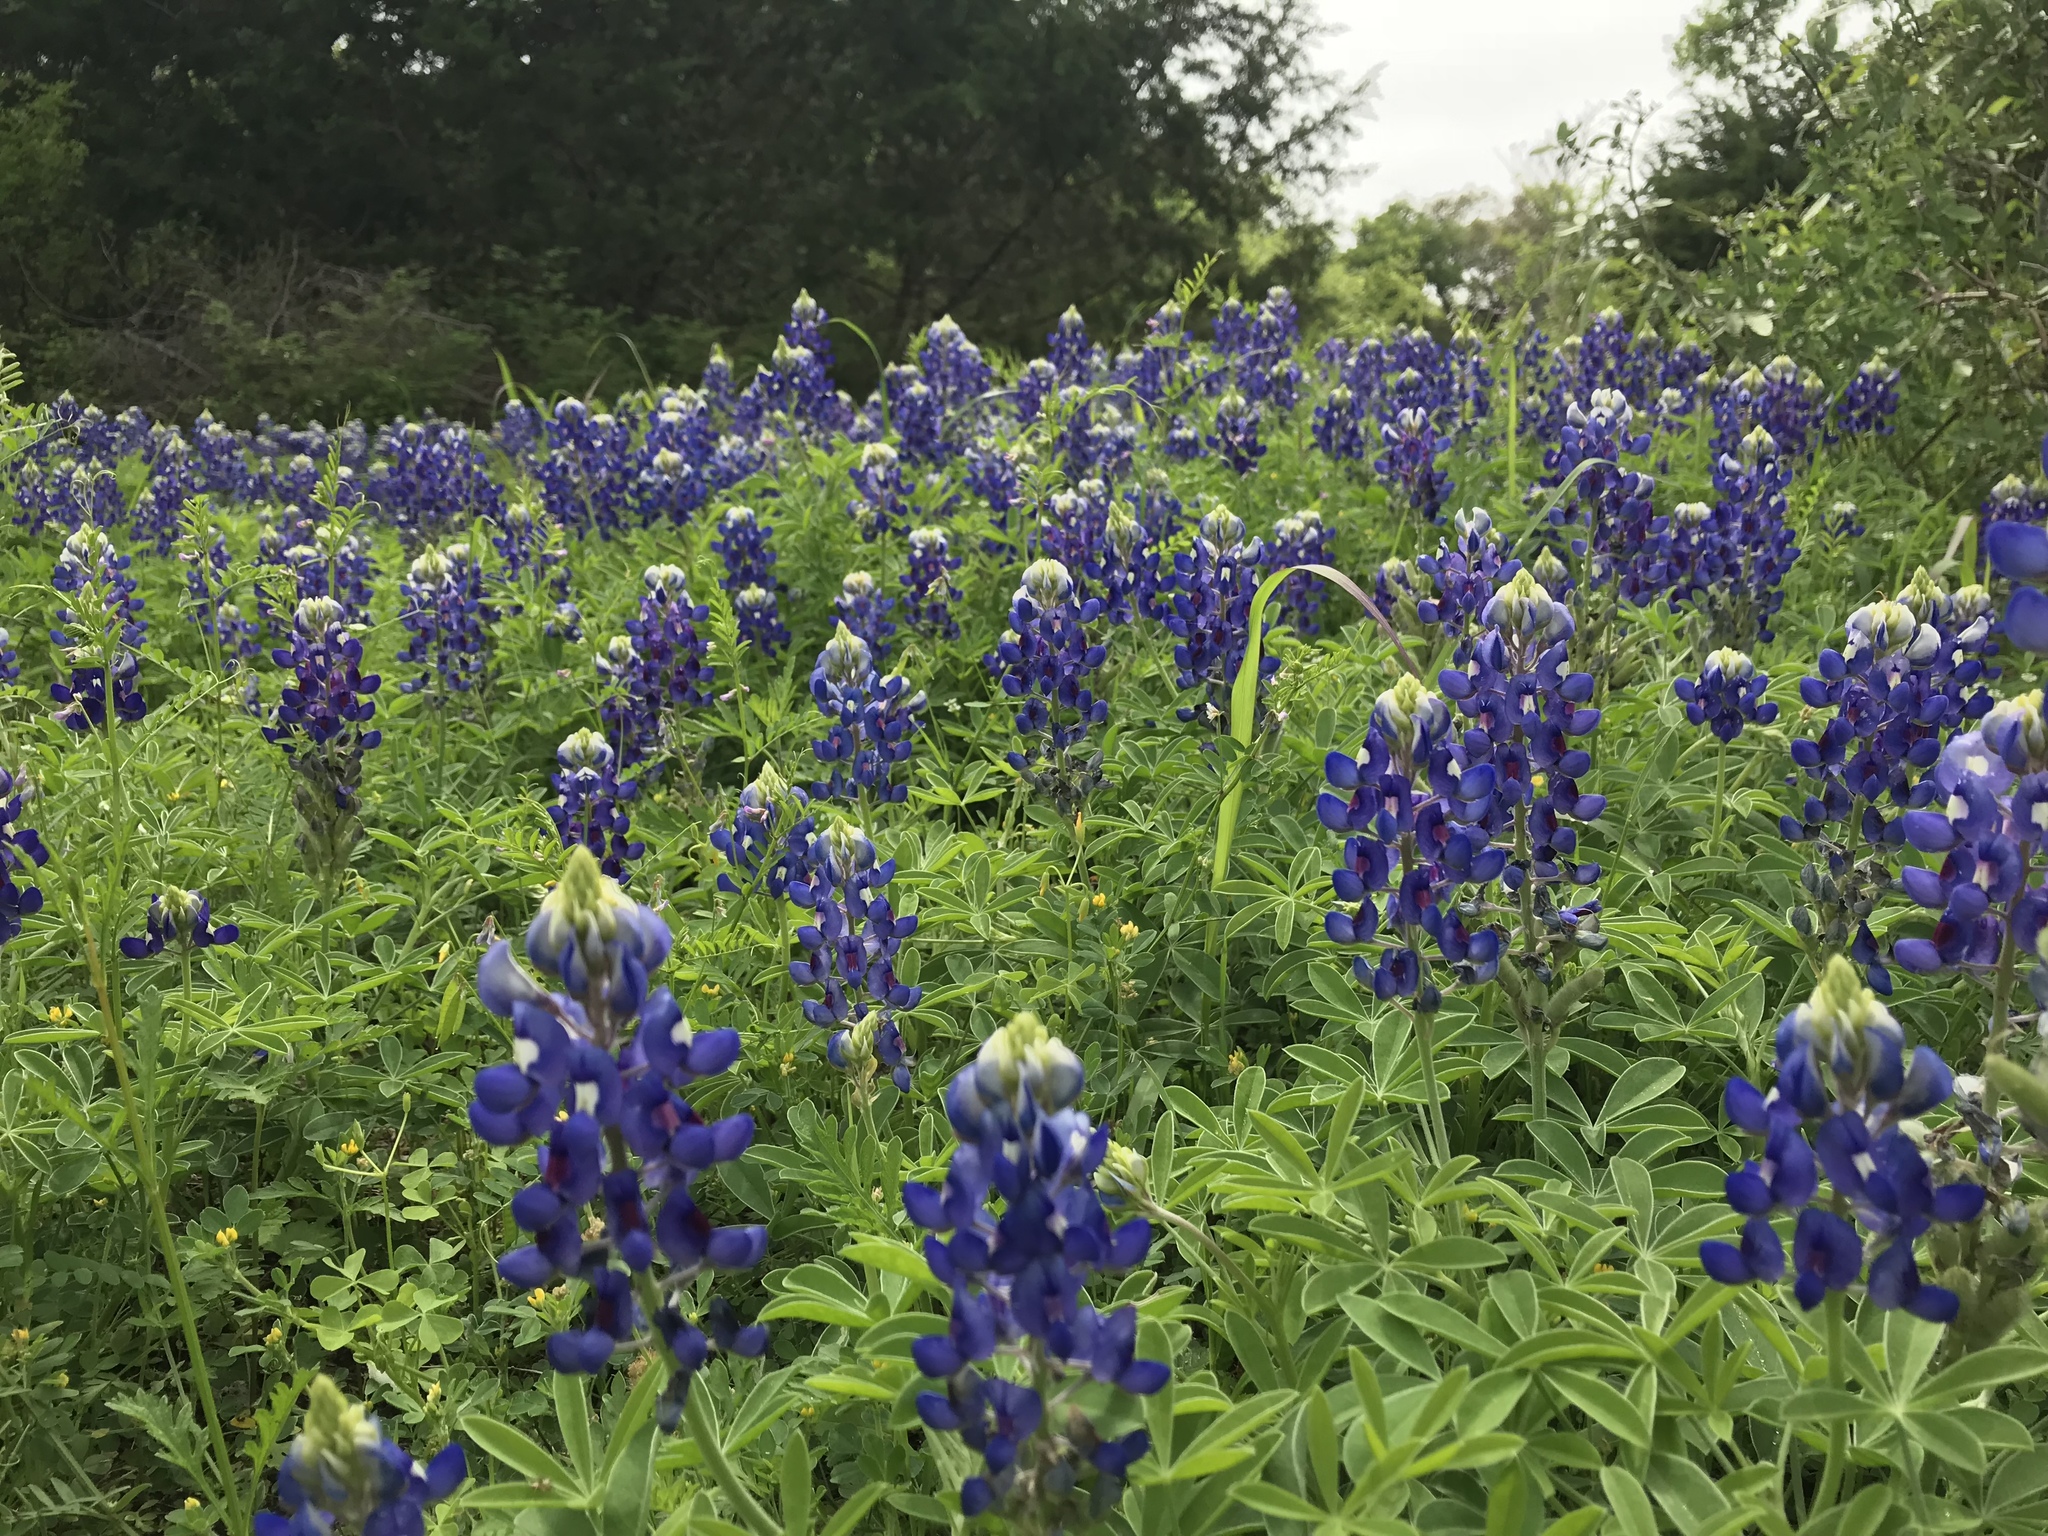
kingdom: Plantae
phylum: Tracheophyta
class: Magnoliopsida
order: Fabales
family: Fabaceae
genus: Lupinus
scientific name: Lupinus texensis
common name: Texas bluebonnet
